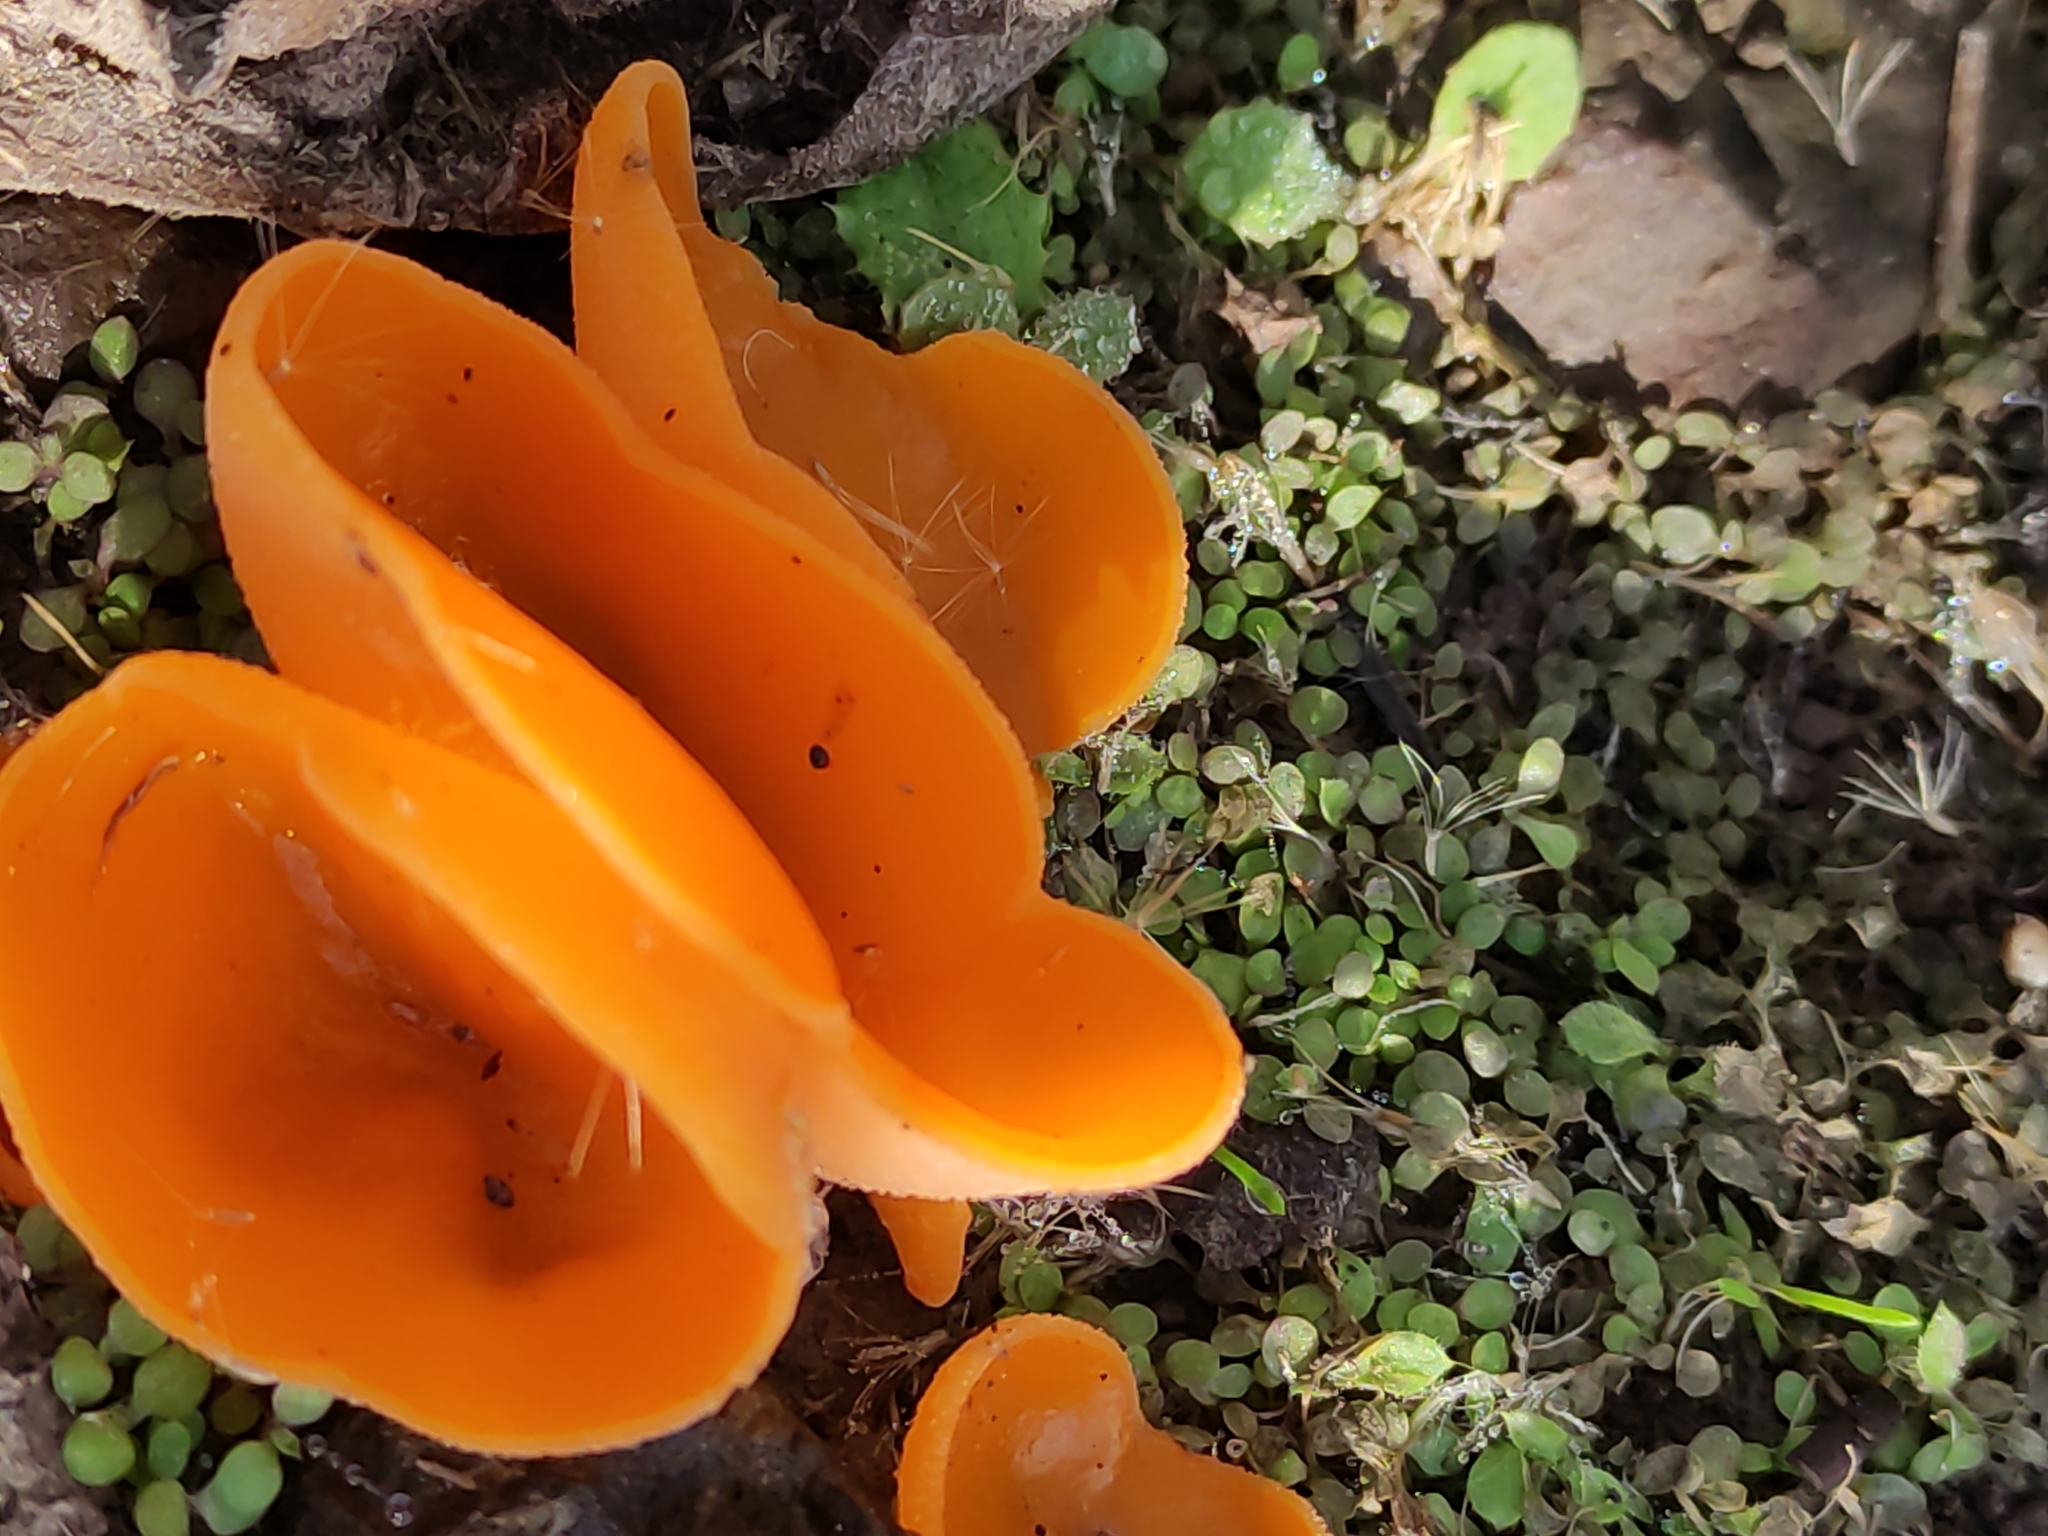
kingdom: Fungi
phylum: Ascomycota
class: Pezizomycetes
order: Pezizales
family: Pyronemataceae
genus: Aleuria
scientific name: Aleuria aurantia
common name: Orange peel fungus
